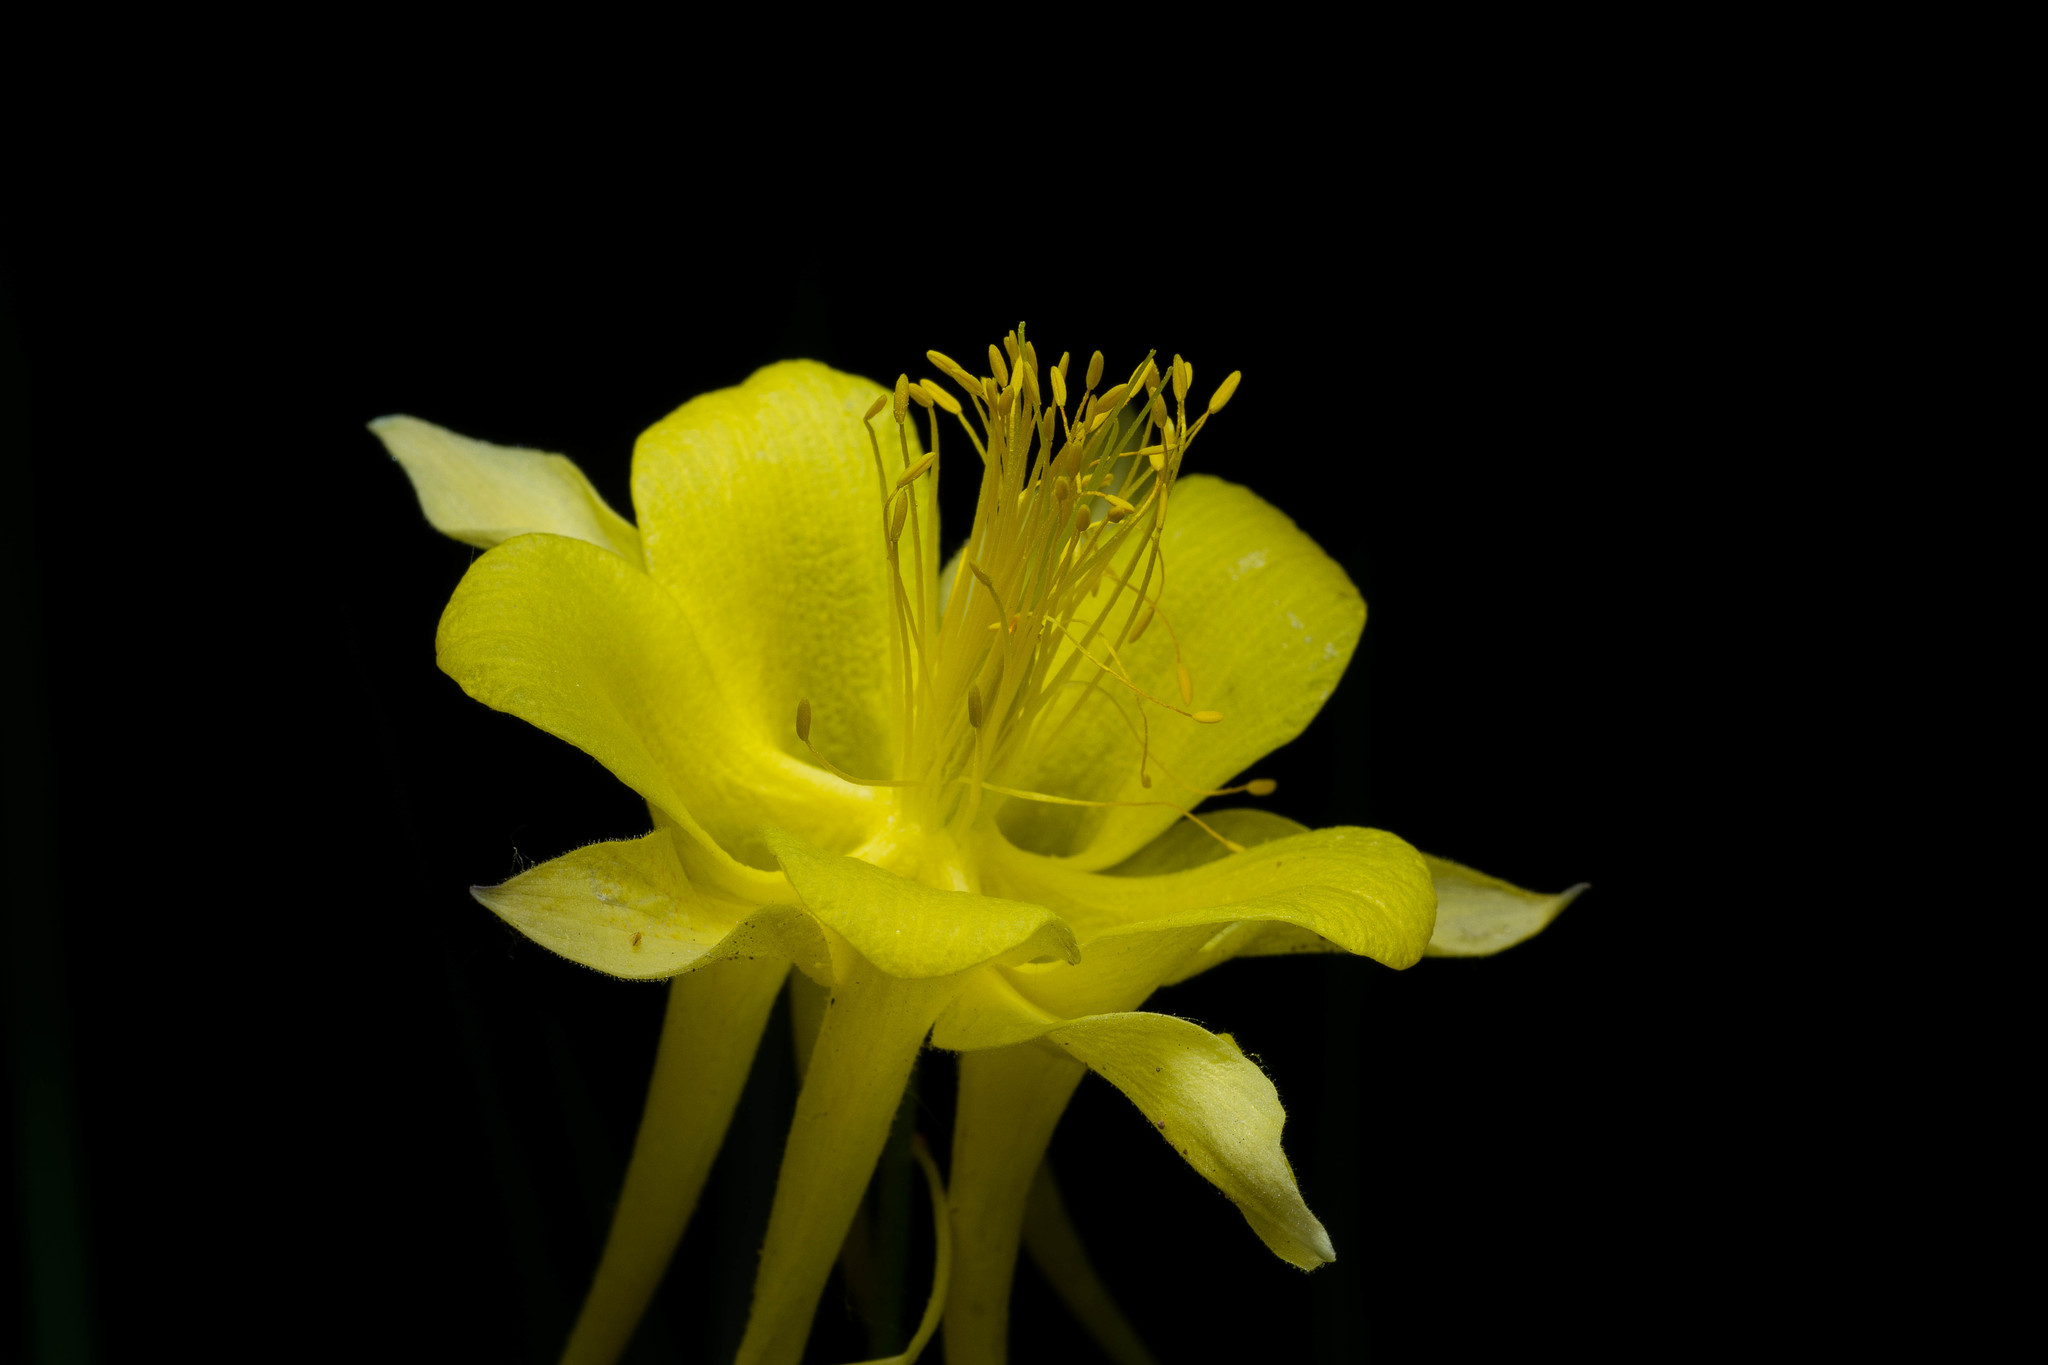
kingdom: Plantae
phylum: Tracheophyta
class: Magnoliopsida
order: Ranunculales
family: Ranunculaceae
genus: Aquilegia
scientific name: Aquilegia chrysantha
